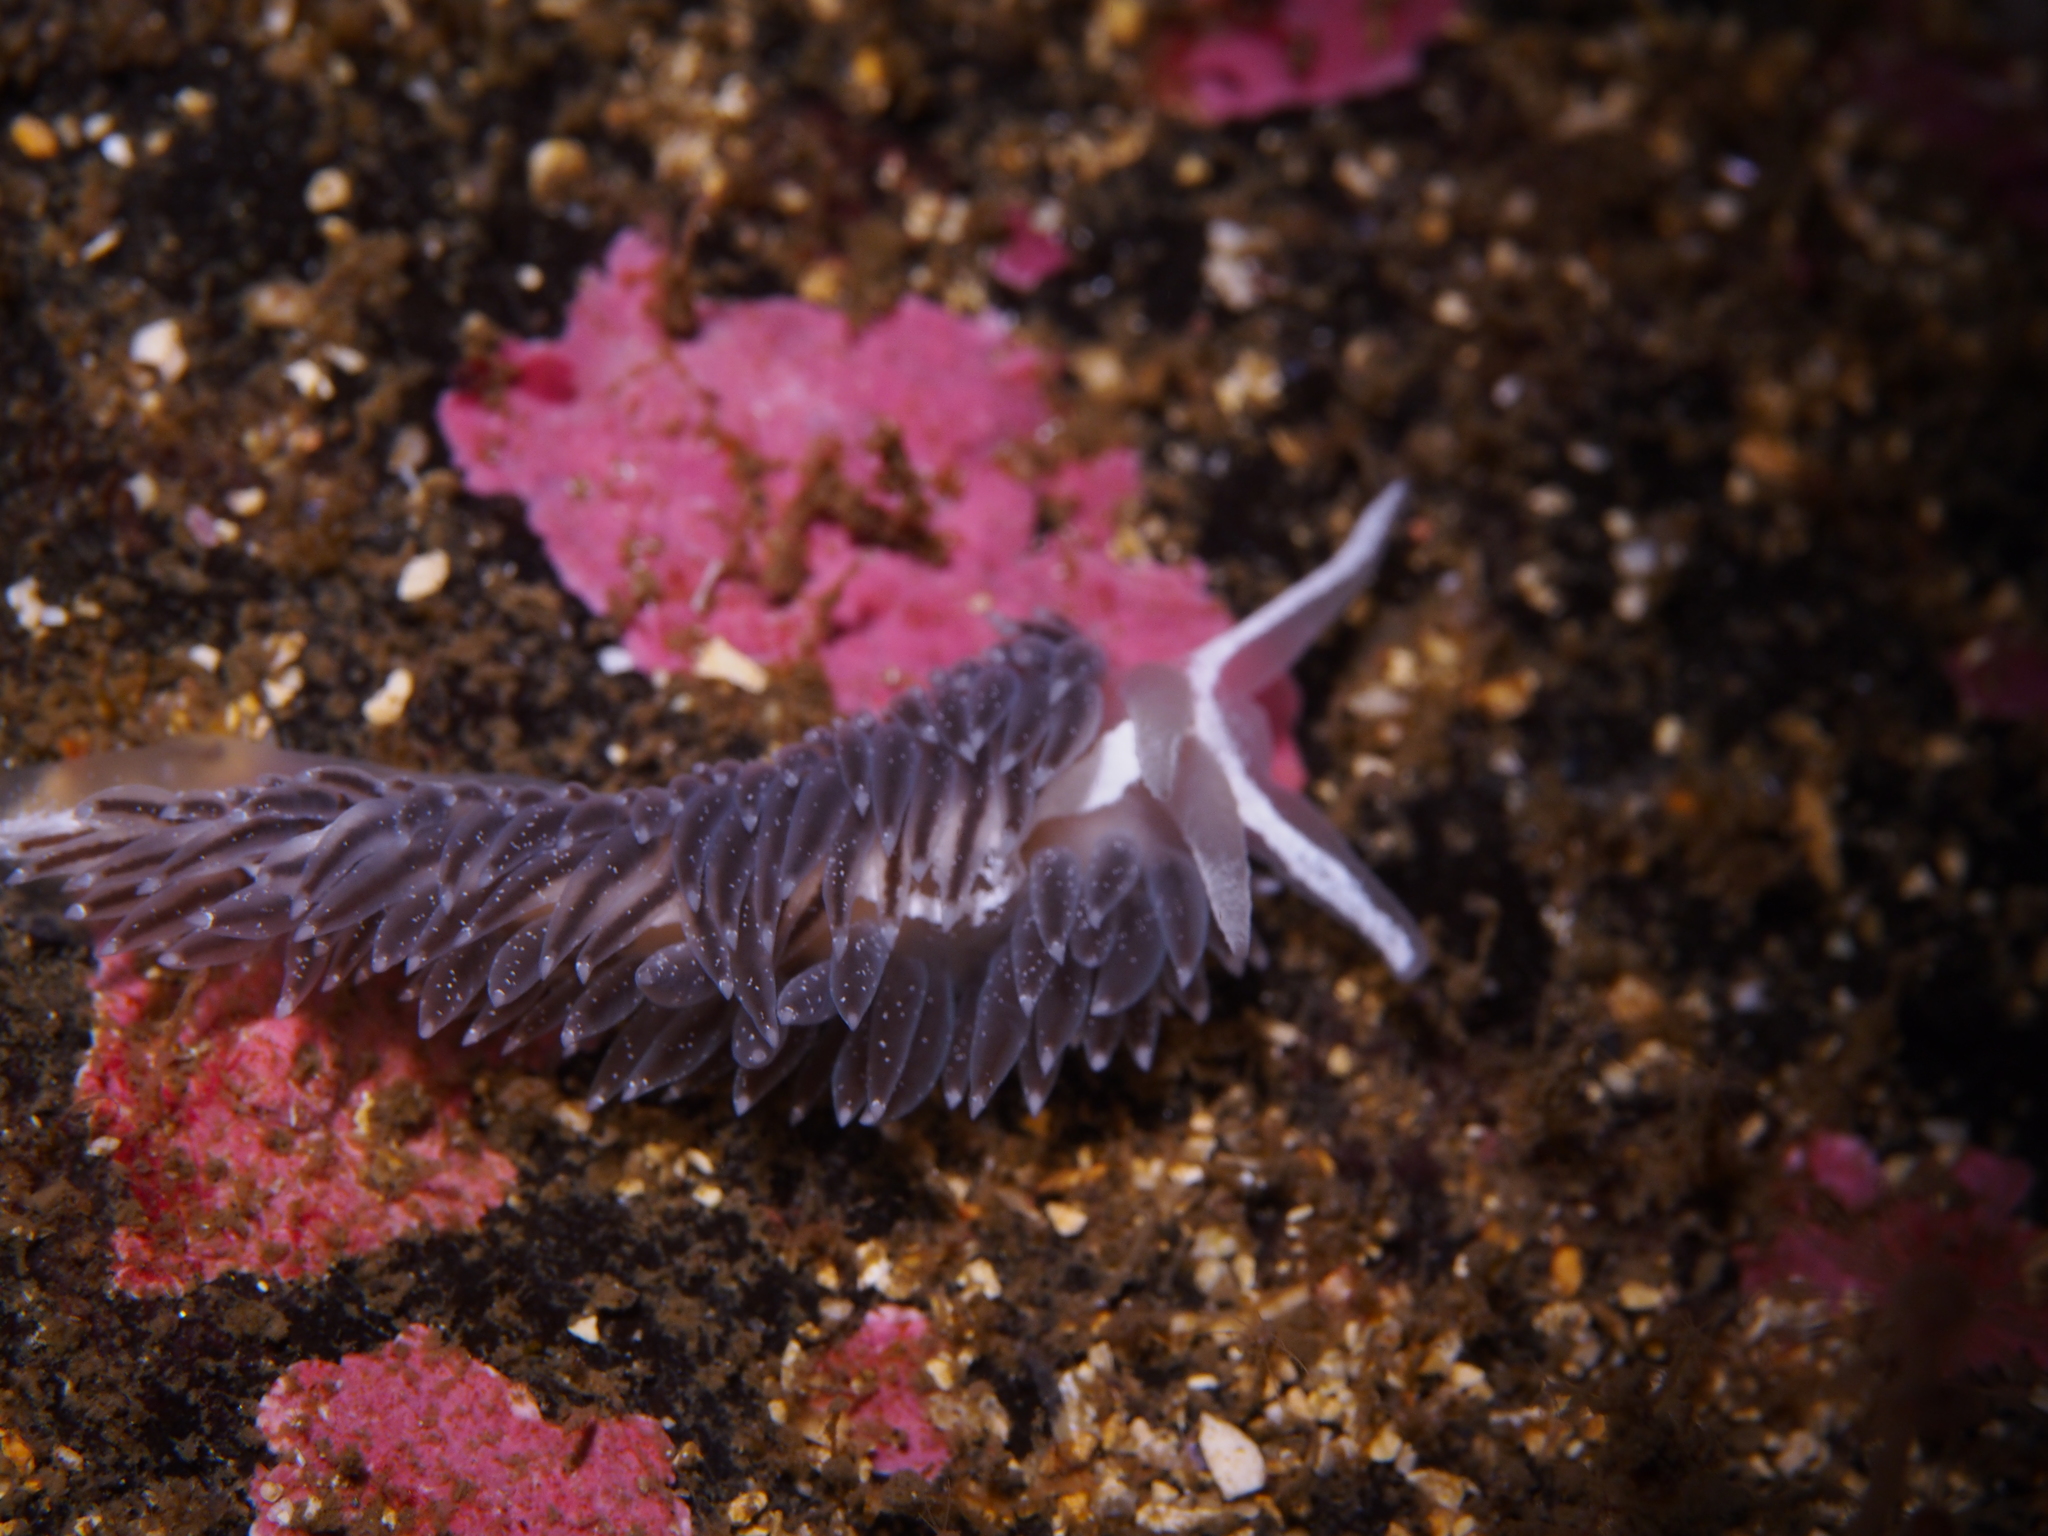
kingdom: Animalia
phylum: Mollusca
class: Gastropoda
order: Nudibranchia
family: Coryphellidae
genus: Coryphella
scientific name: Coryphella orjani
